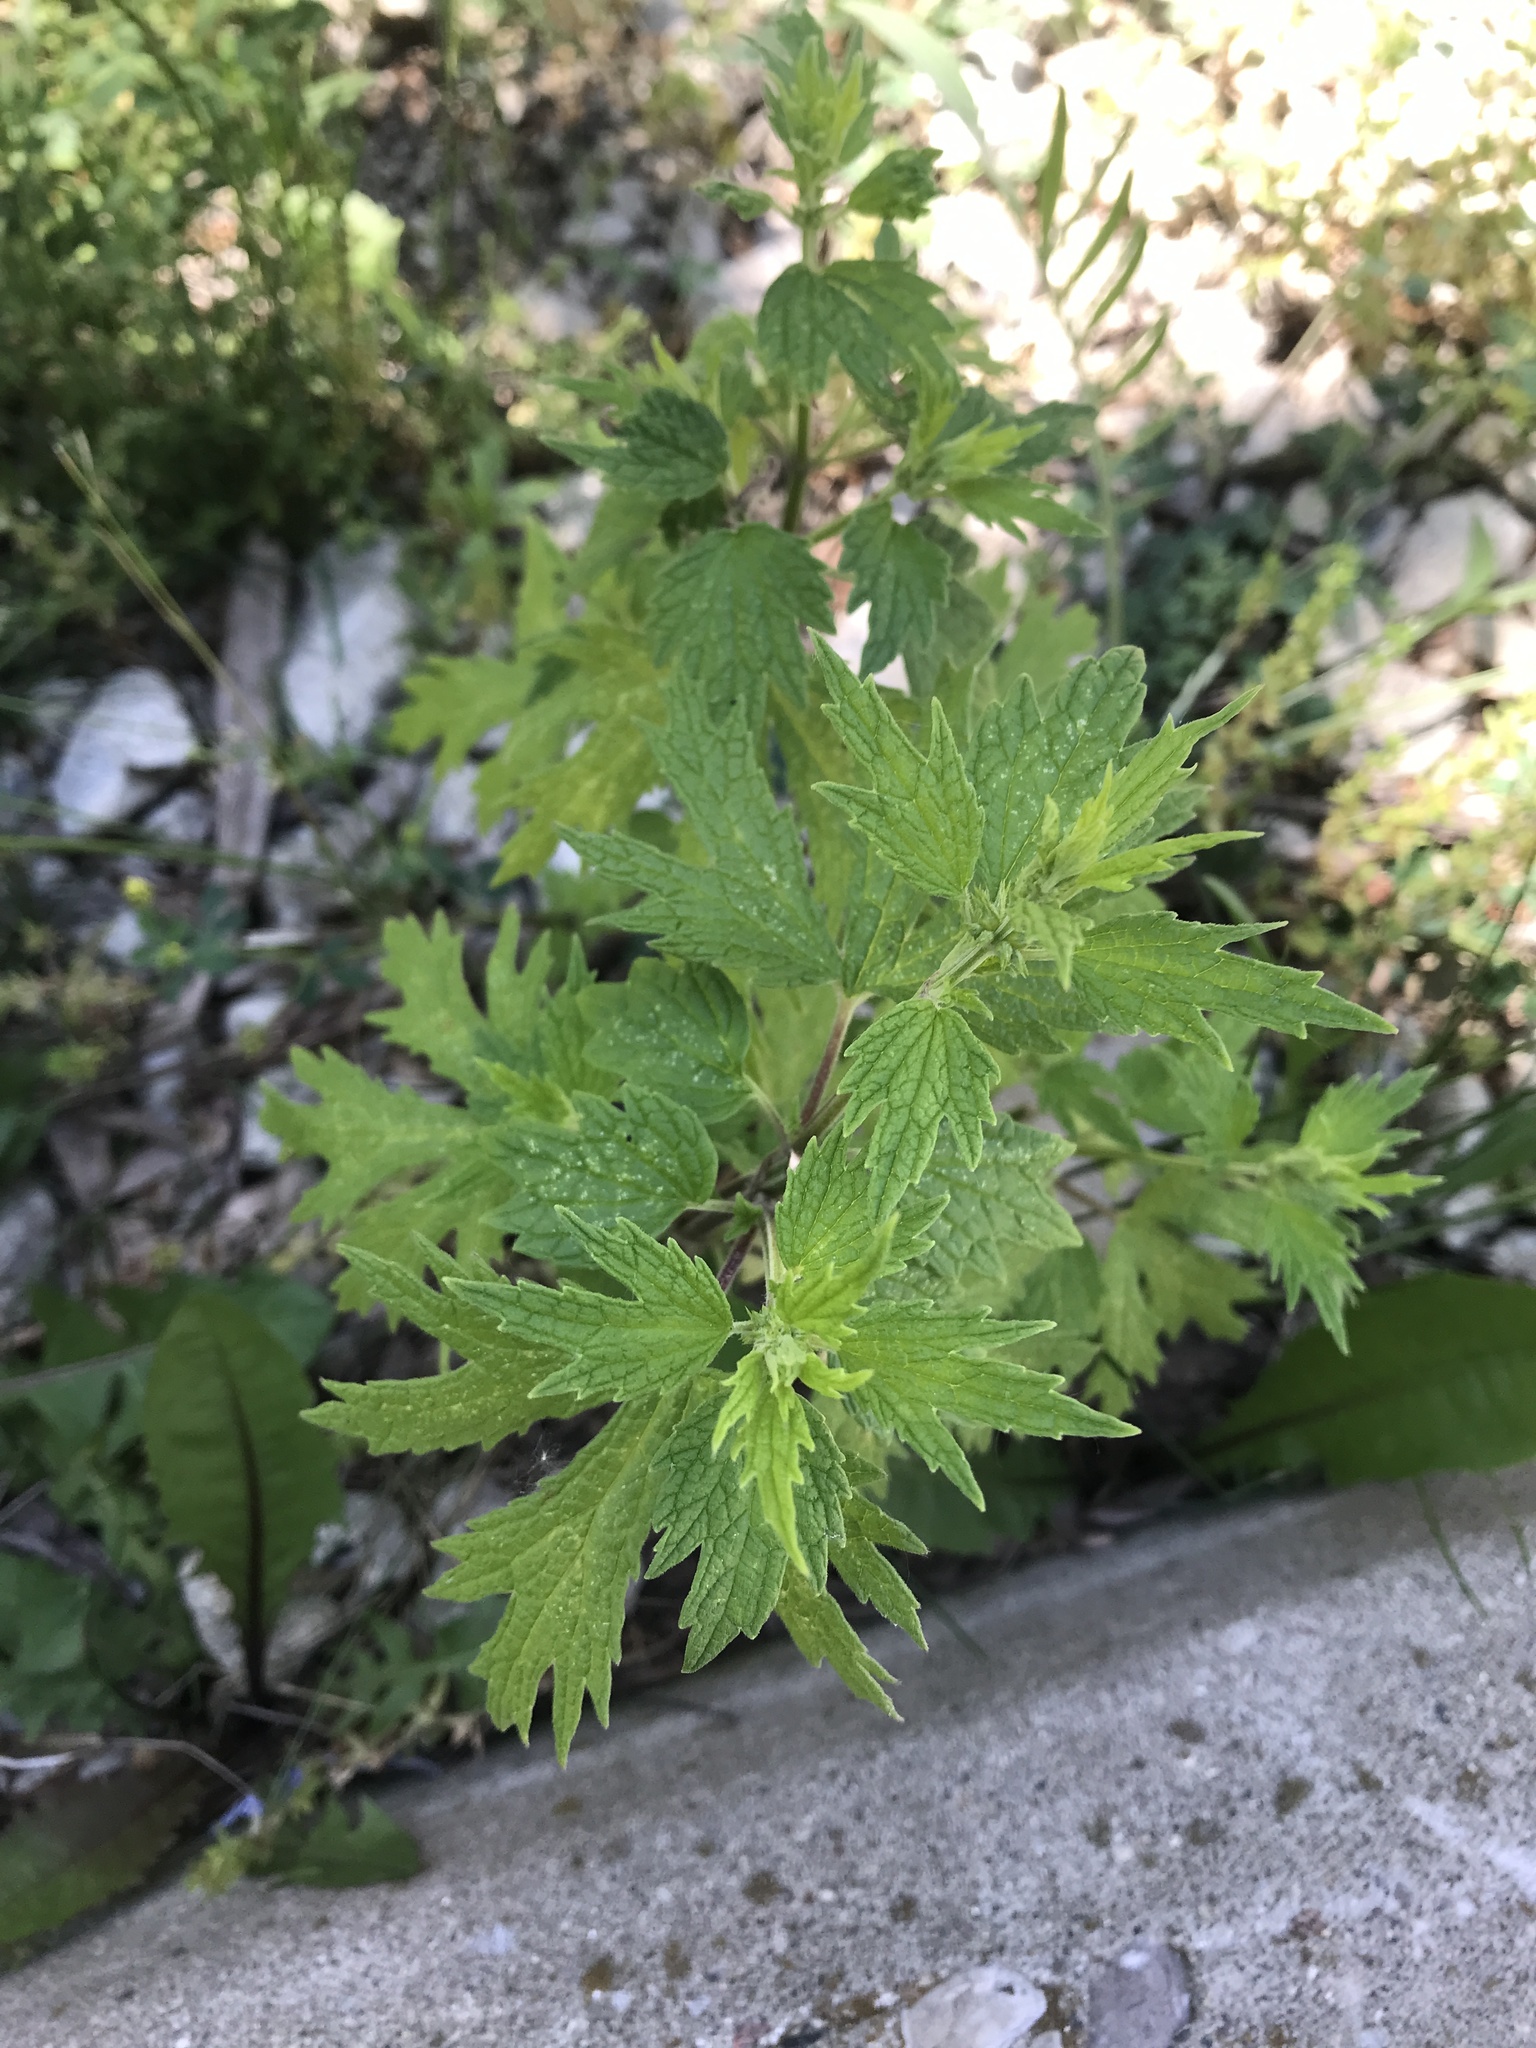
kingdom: Plantae
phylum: Tracheophyta
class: Magnoliopsida
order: Lamiales
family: Lamiaceae
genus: Leonurus
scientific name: Leonurus cardiaca
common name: Motherwort
